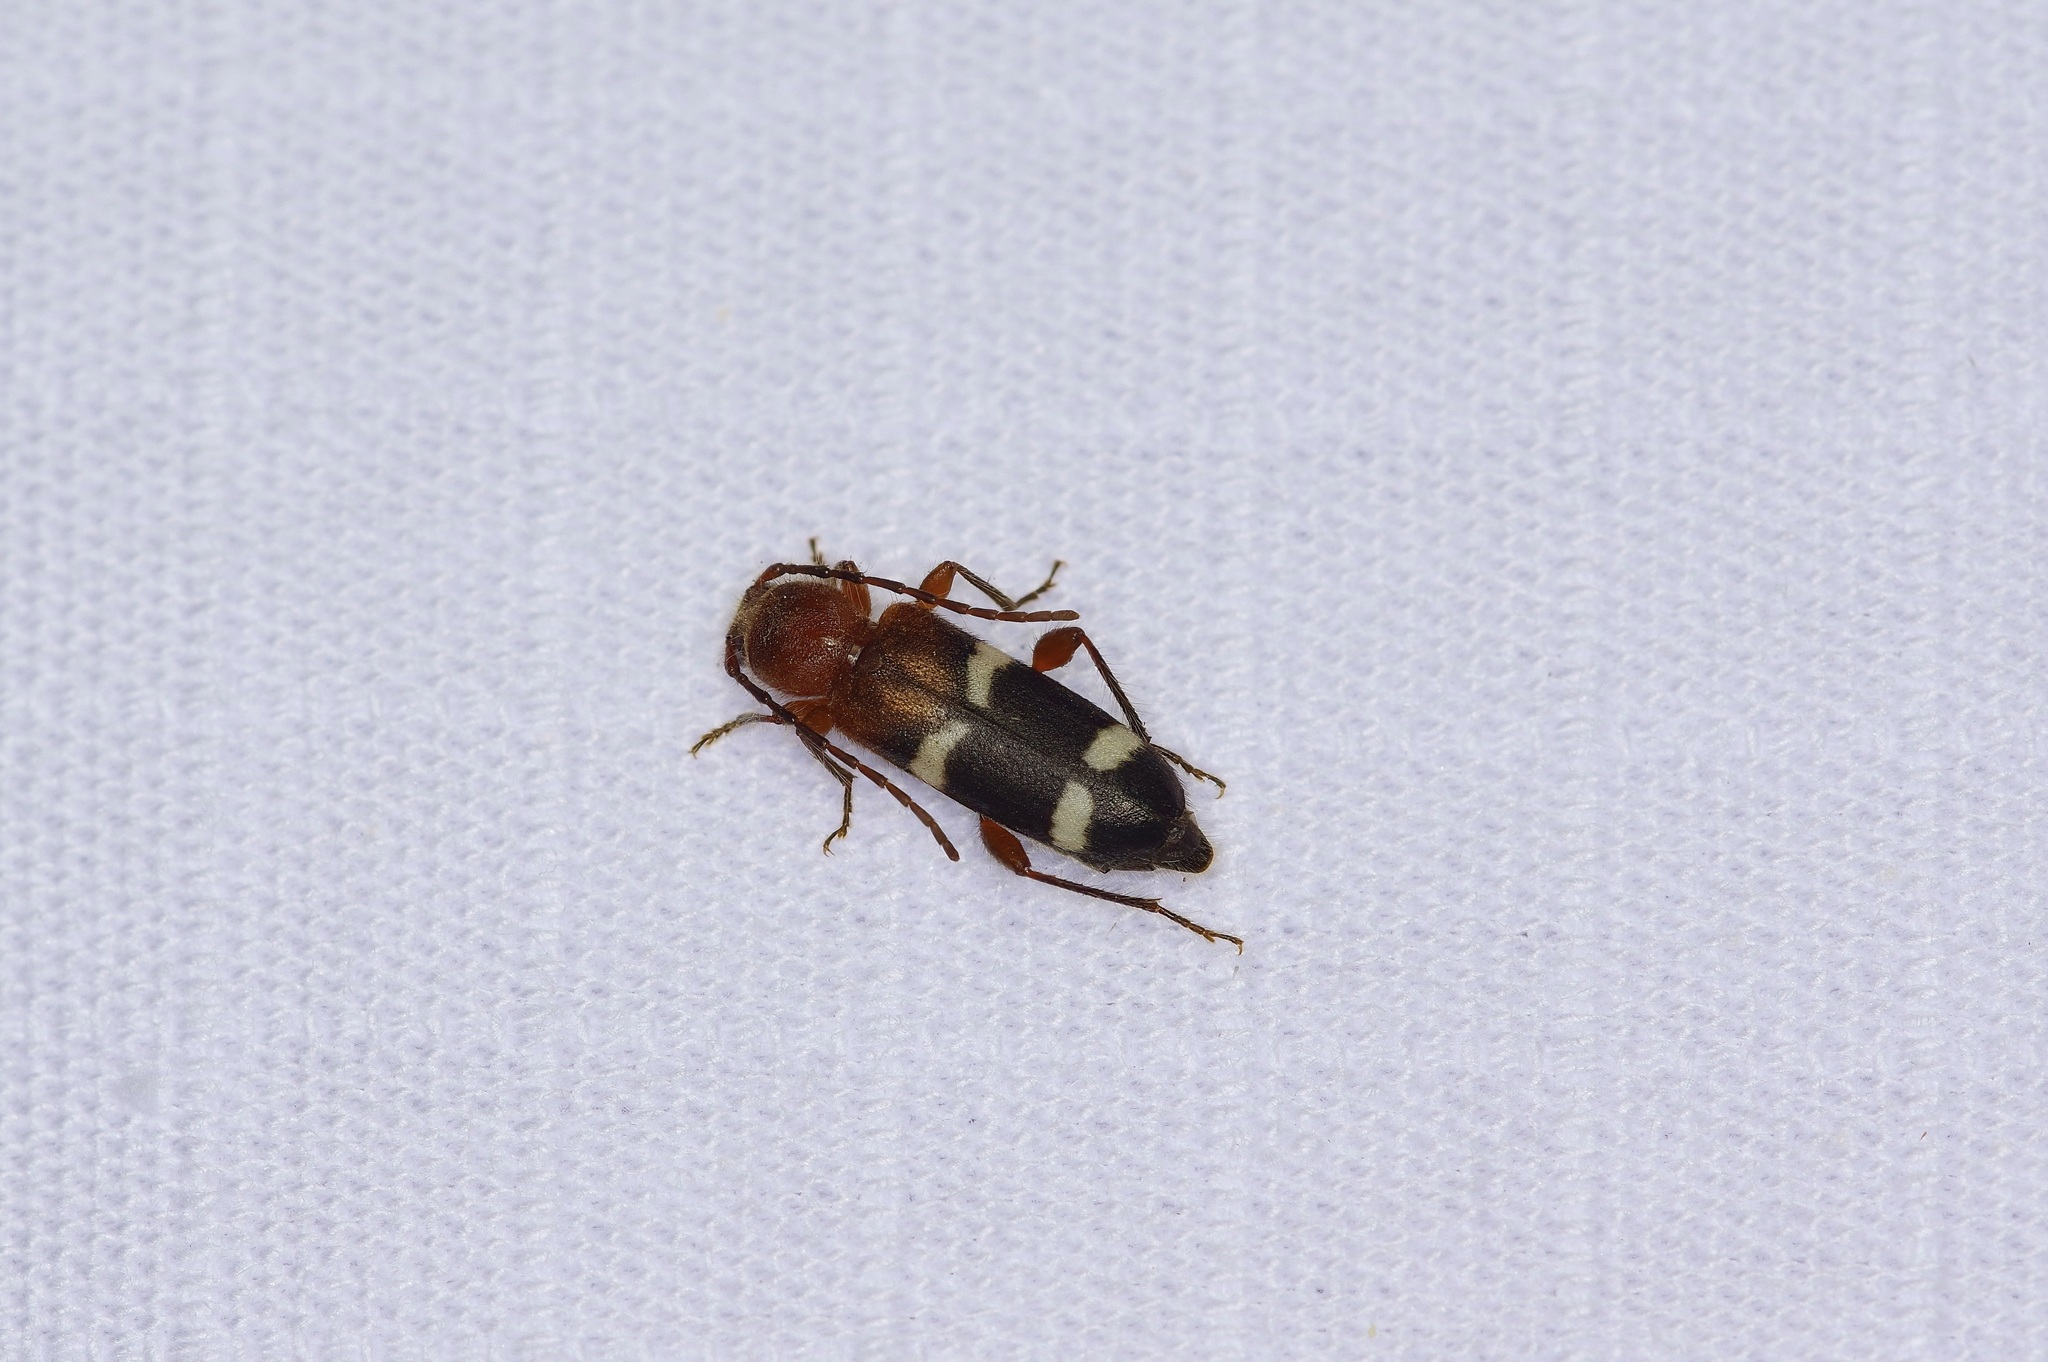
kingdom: Animalia
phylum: Arthropoda
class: Insecta
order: Coleoptera
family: Cerambycidae
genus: Phymatodes
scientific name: Phymatodes varius
